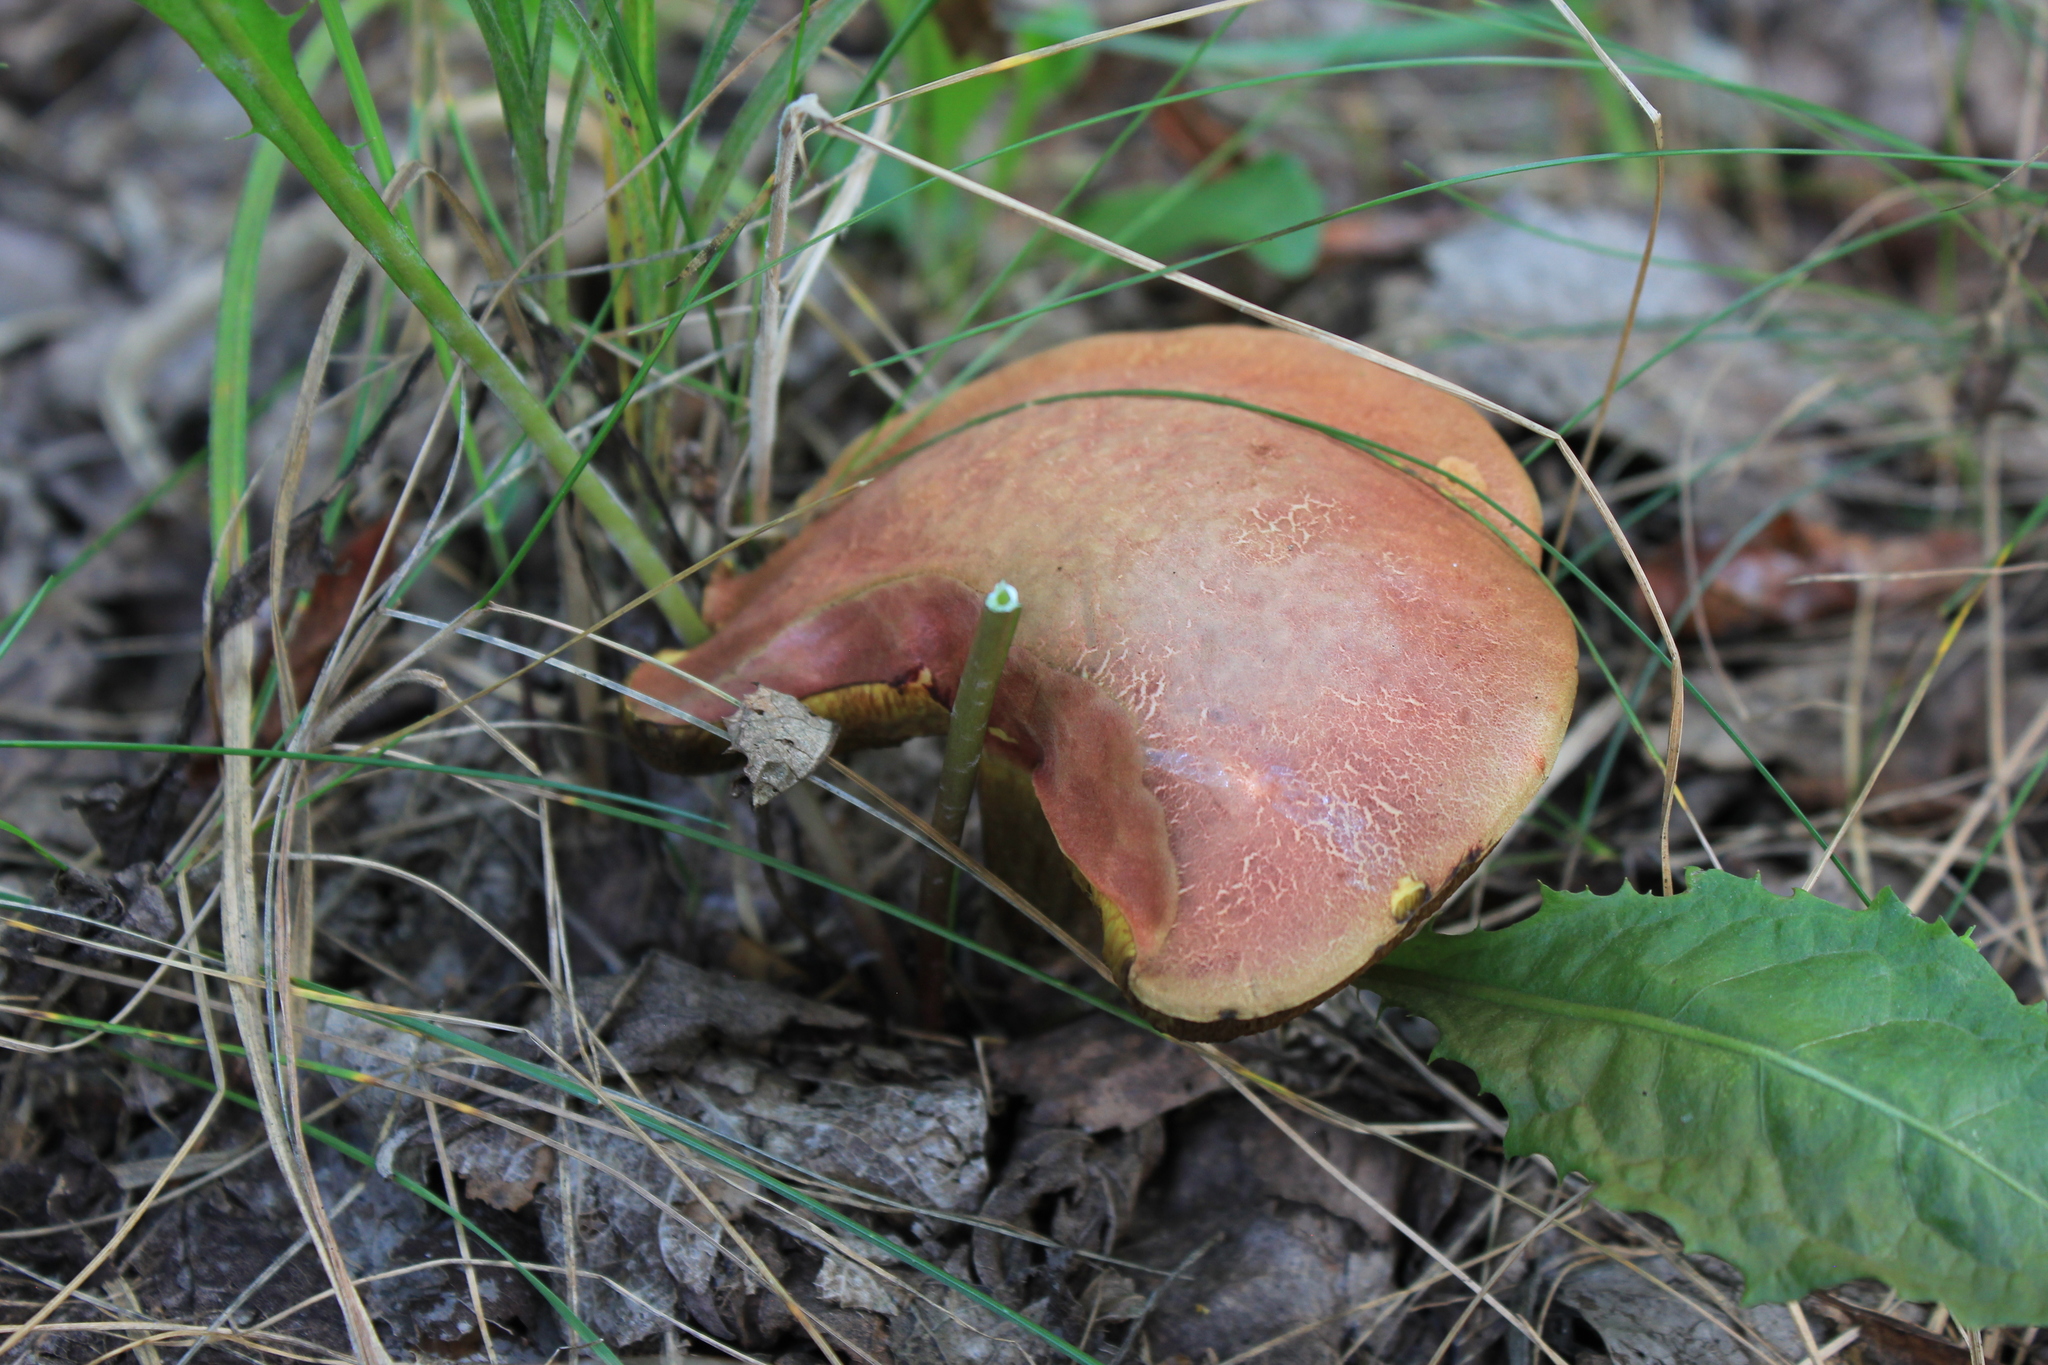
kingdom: Fungi
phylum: Basidiomycota
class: Agaricomycetes
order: Boletales
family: Boletaceae
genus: Hortiboletus
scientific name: Hortiboletus rubellus
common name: Ruby bolete
